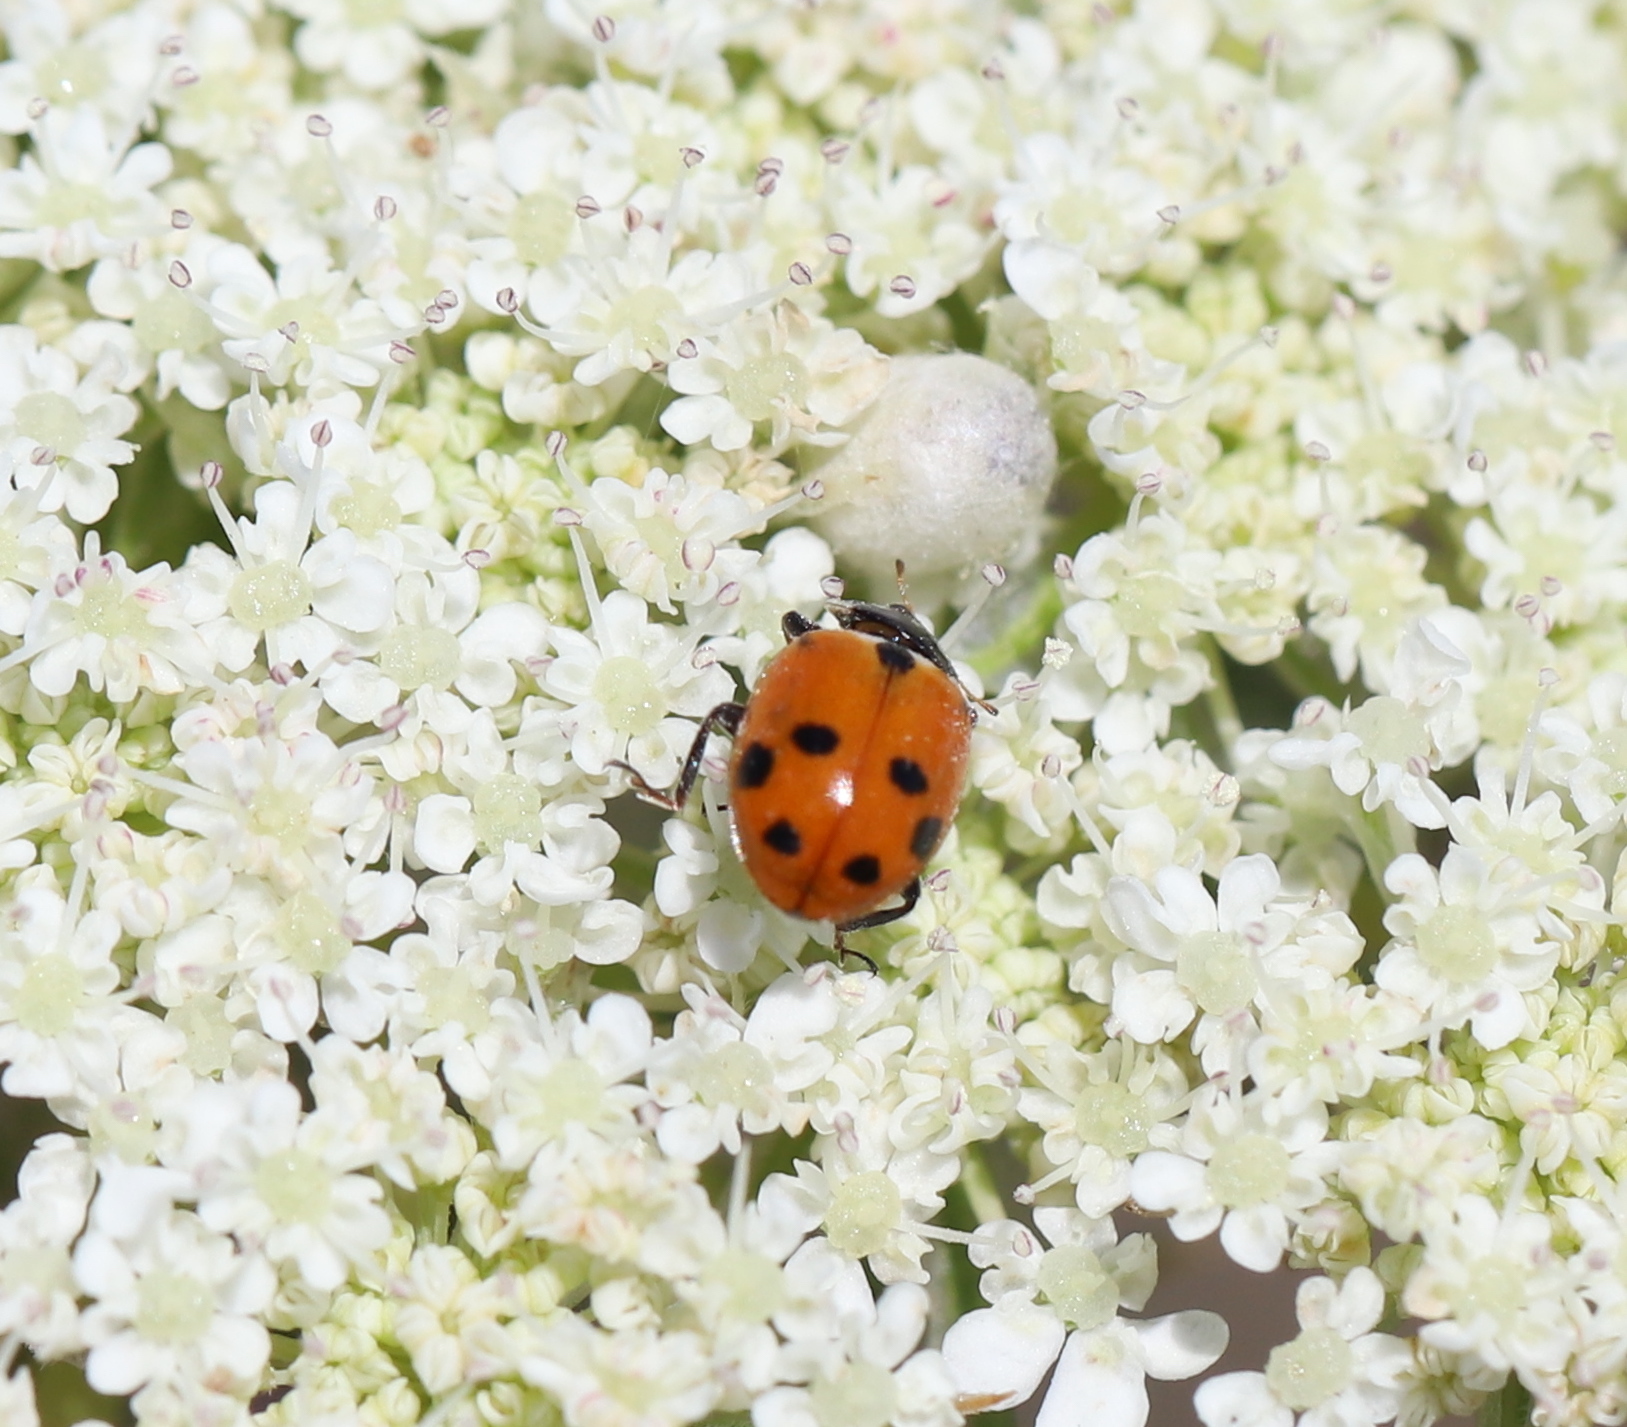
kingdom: Animalia
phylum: Arthropoda
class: Insecta
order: Coleoptera
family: Coccinellidae
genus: Hippodamia
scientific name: Hippodamia variegata
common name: Ladybird beetle
